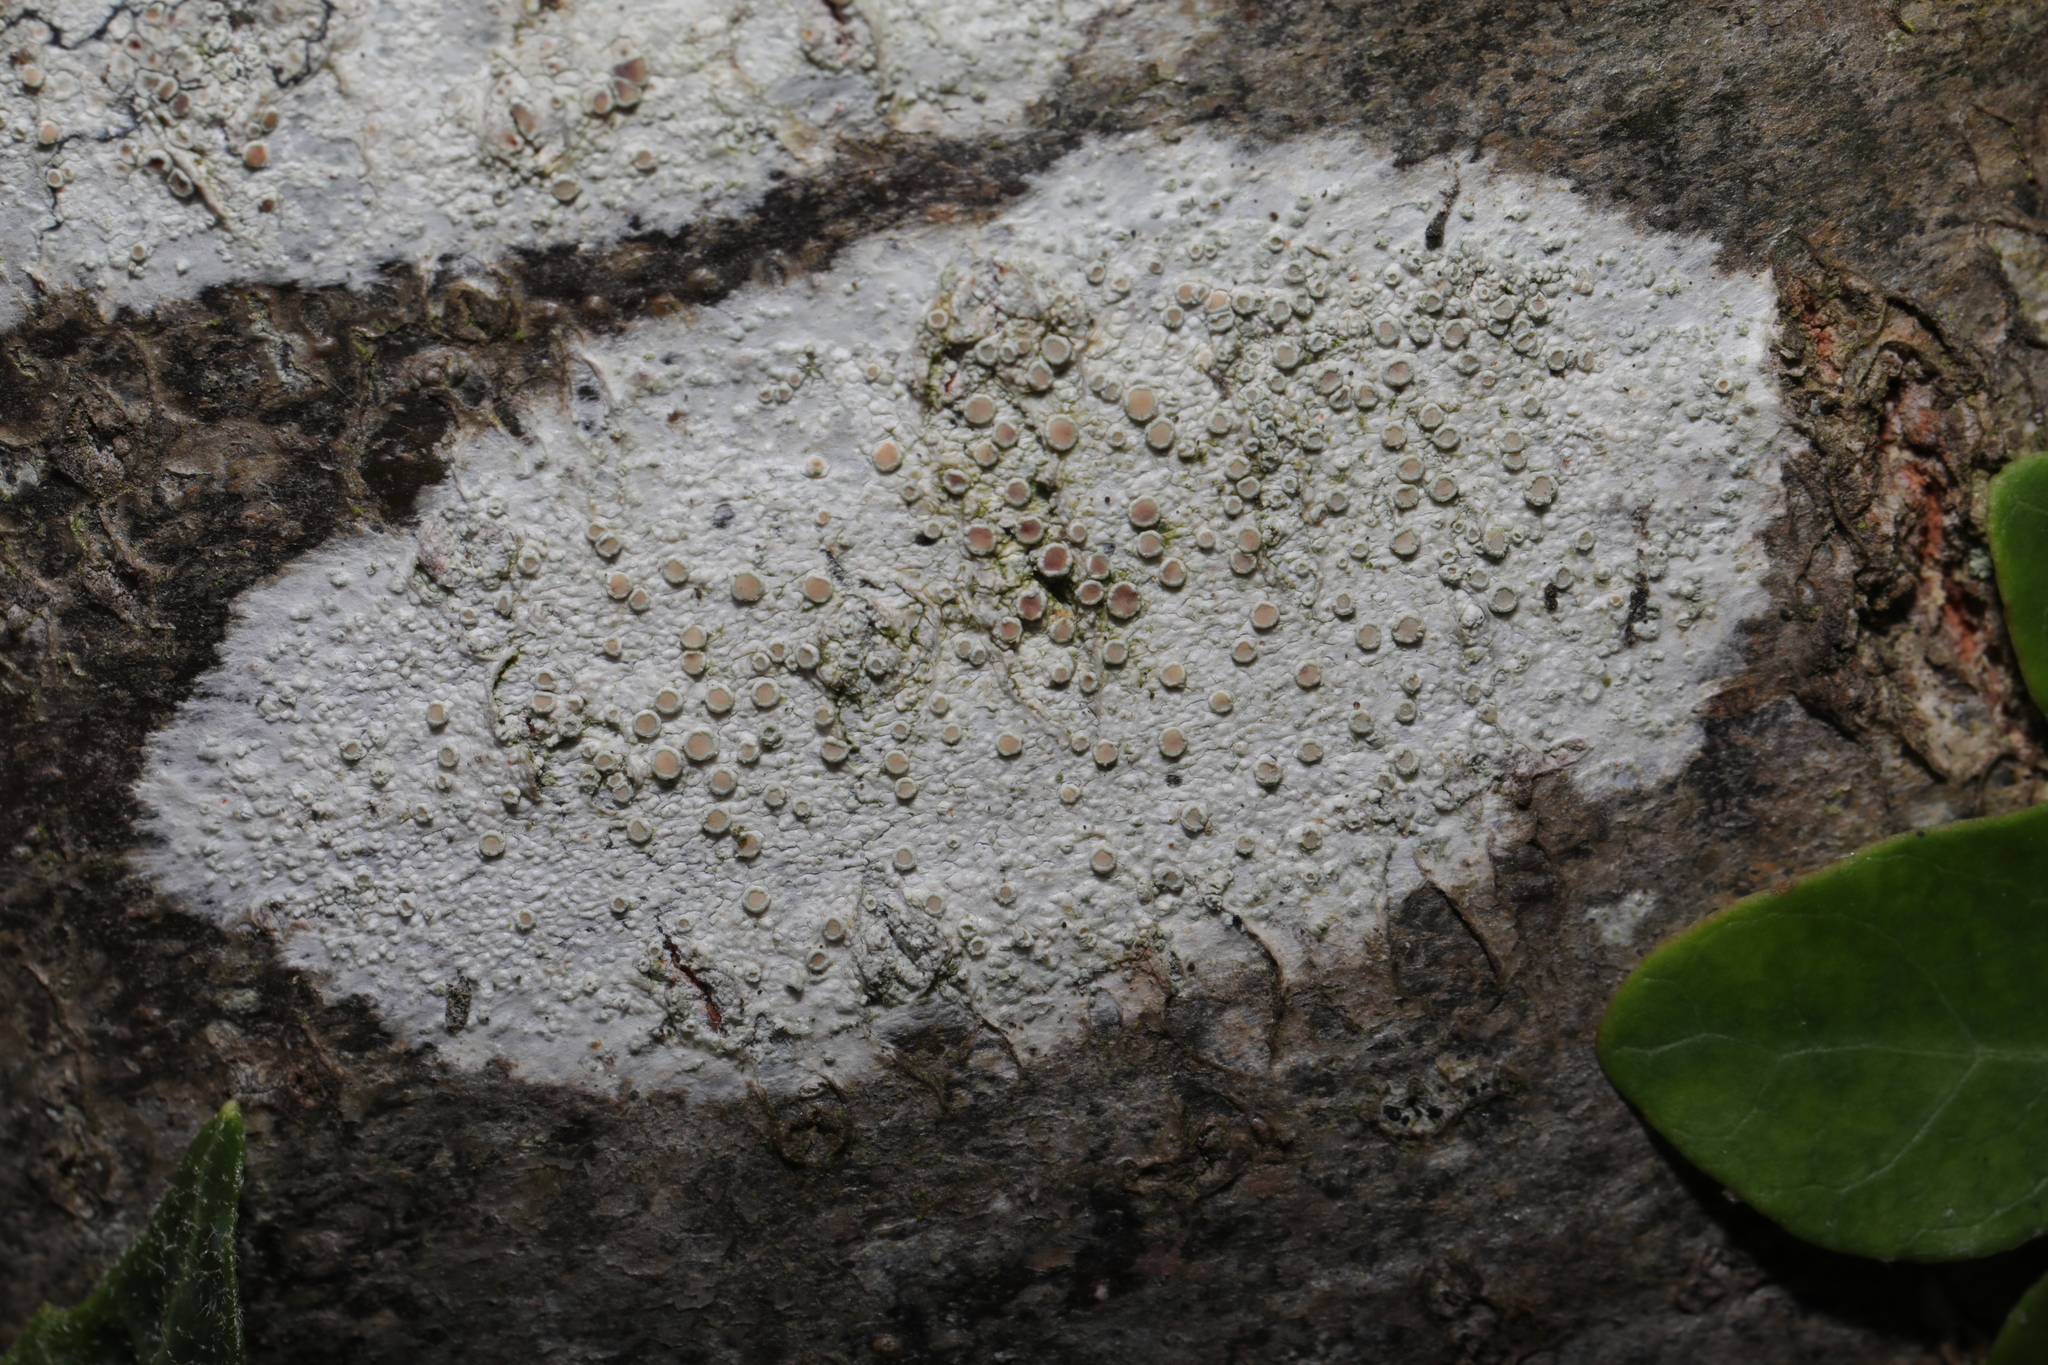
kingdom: Fungi
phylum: Ascomycota
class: Lecanoromycetes
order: Lecanorales
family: Lecanoraceae
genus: Lecanora
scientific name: Lecanora
